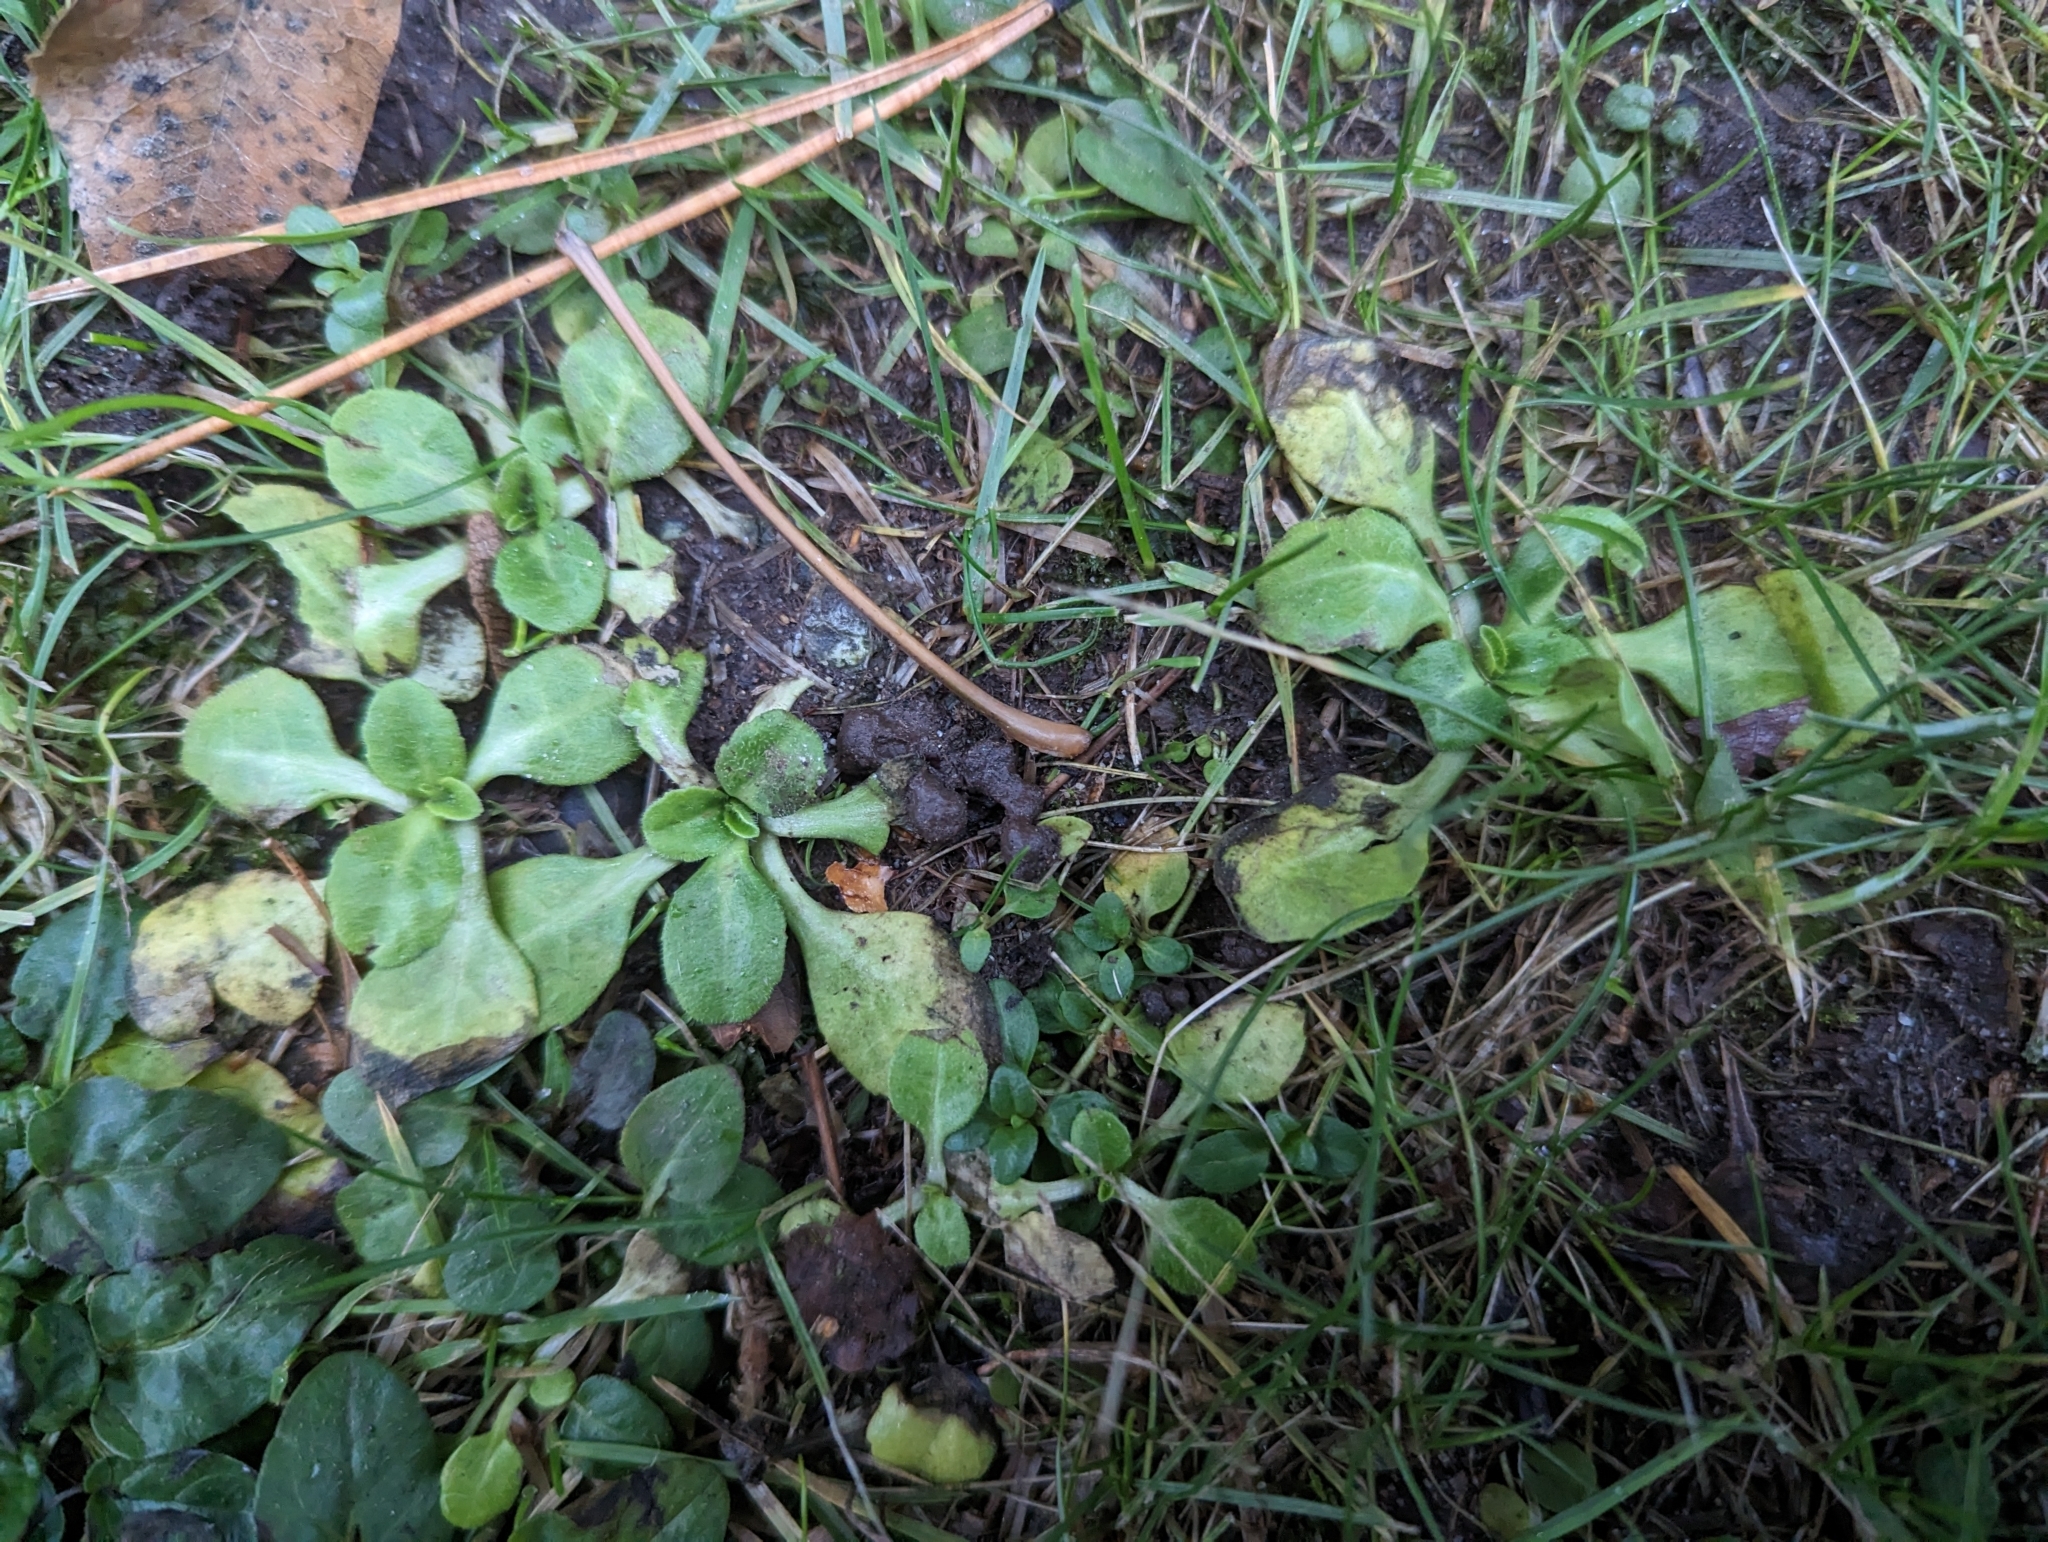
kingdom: Plantae
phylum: Tracheophyta
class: Magnoliopsida
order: Asterales
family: Asteraceae
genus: Bellis
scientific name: Bellis perennis
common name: Lawndaisy
